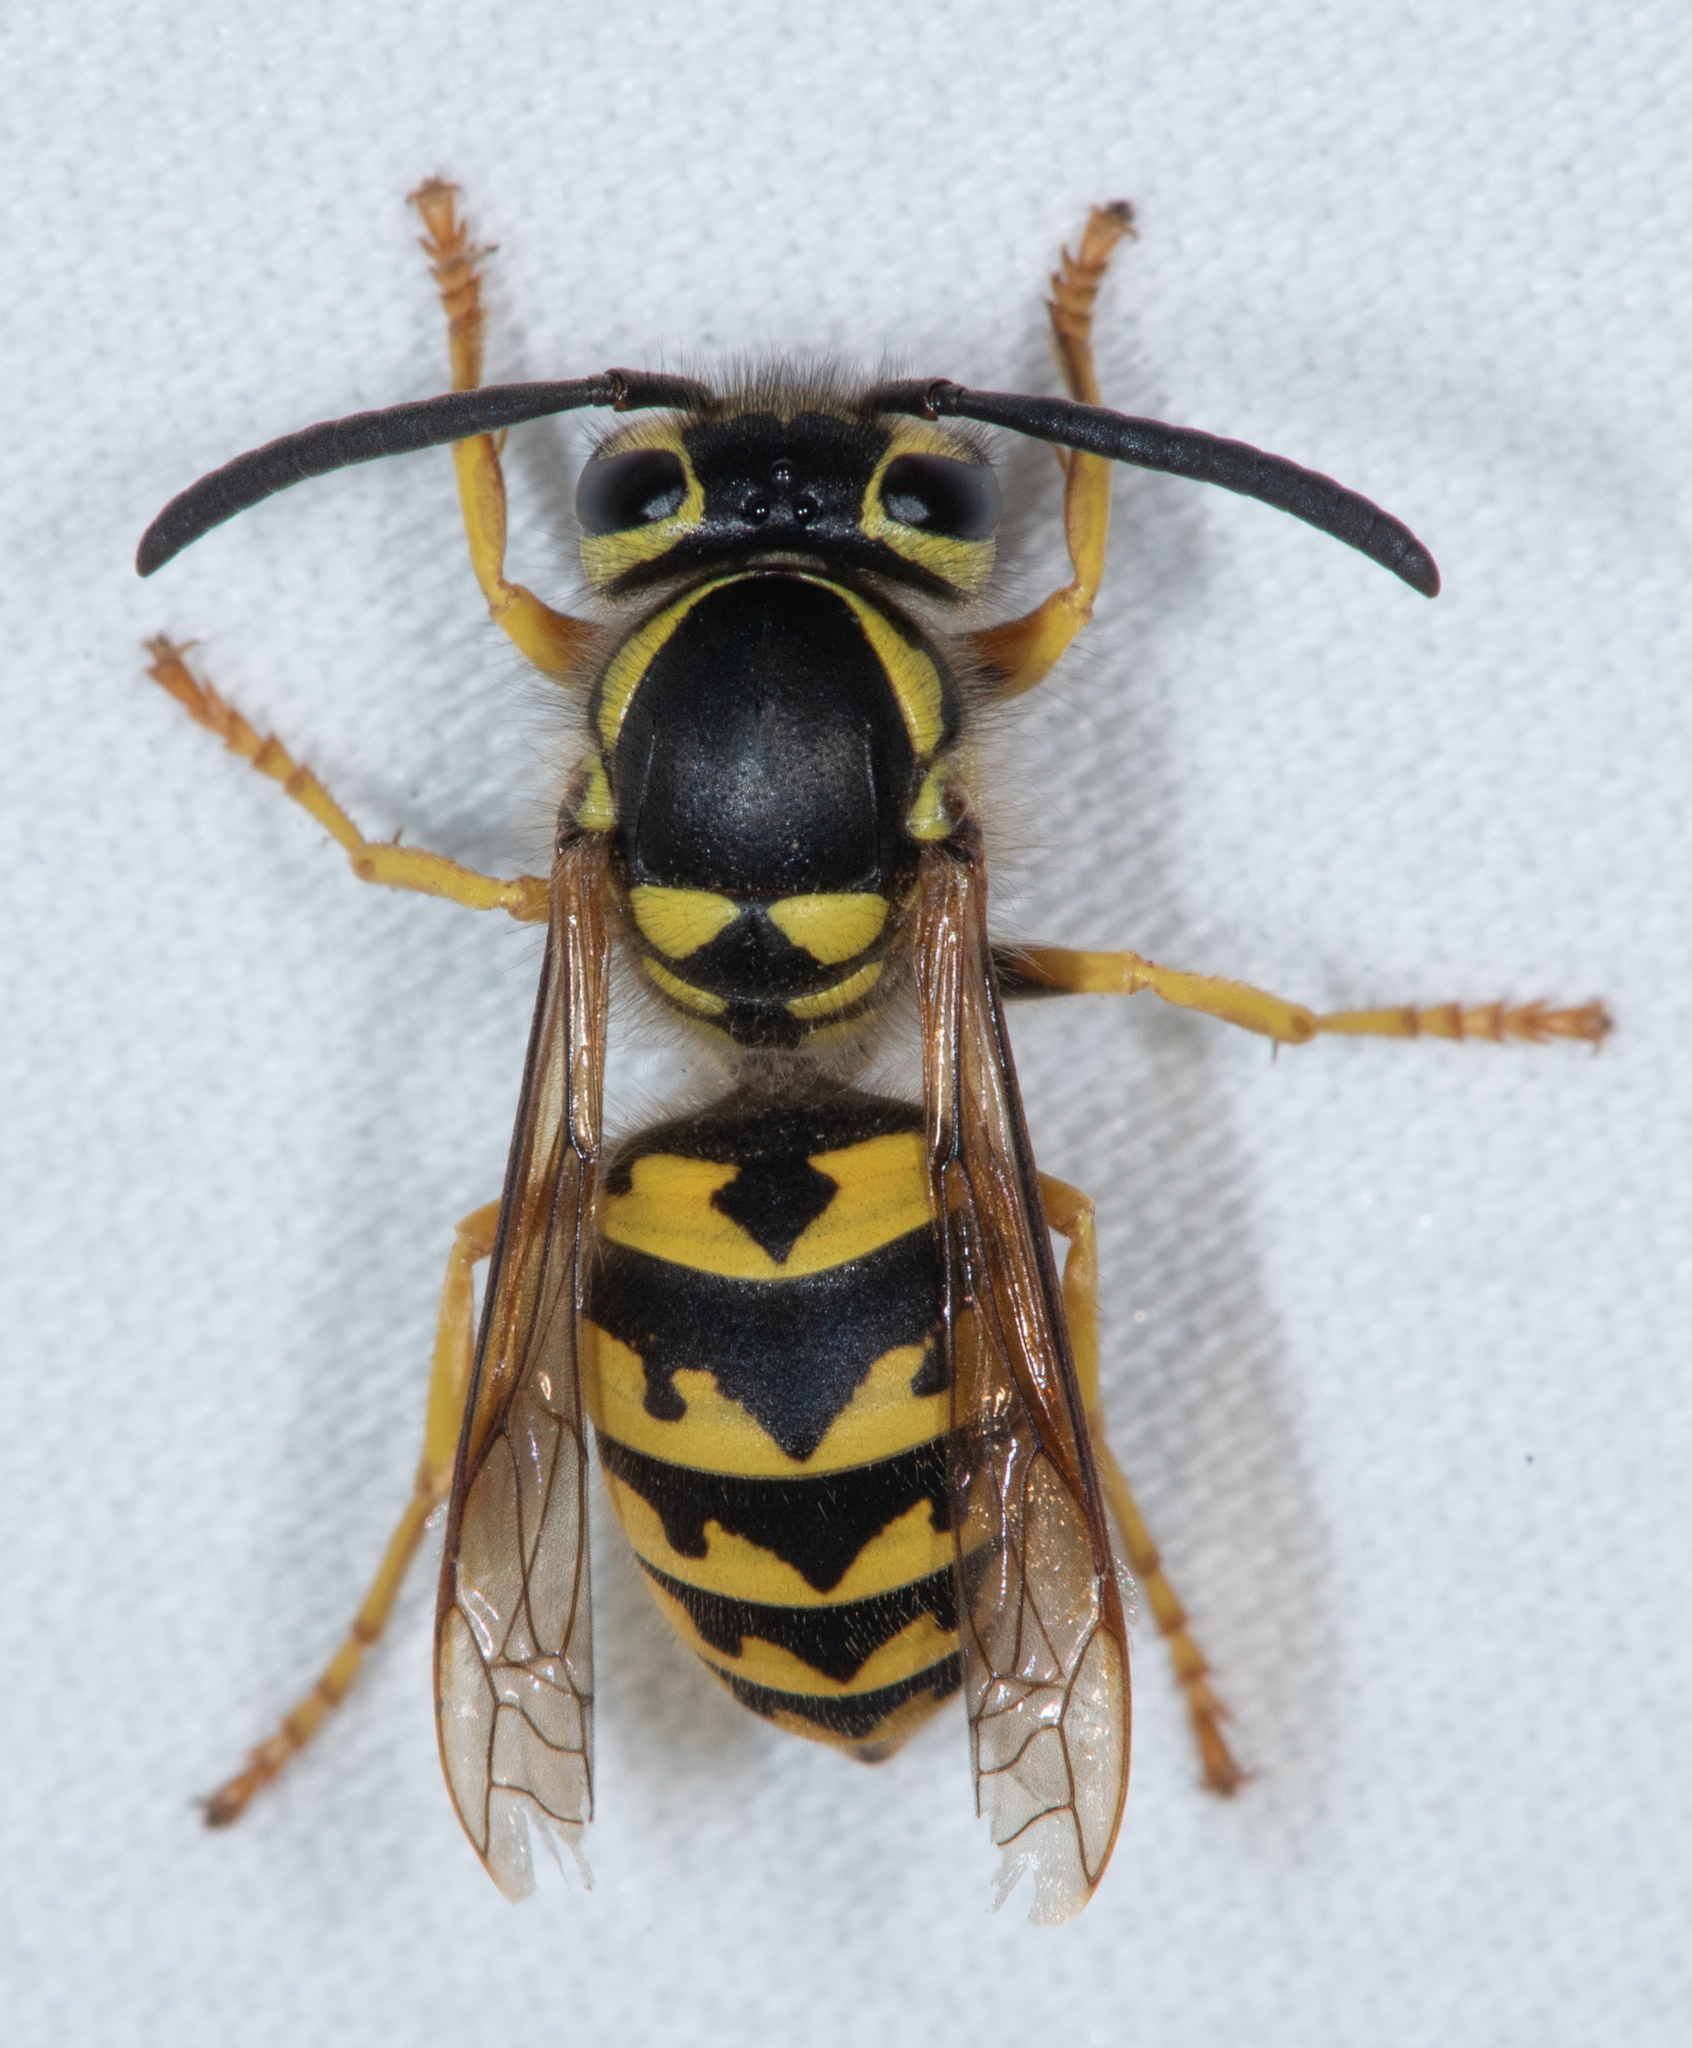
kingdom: Animalia
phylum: Arthropoda
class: Insecta
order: Hymenoptera
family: Vespidae
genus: Vespula
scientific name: Vespula pensylvanica
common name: Western yellowjacket
